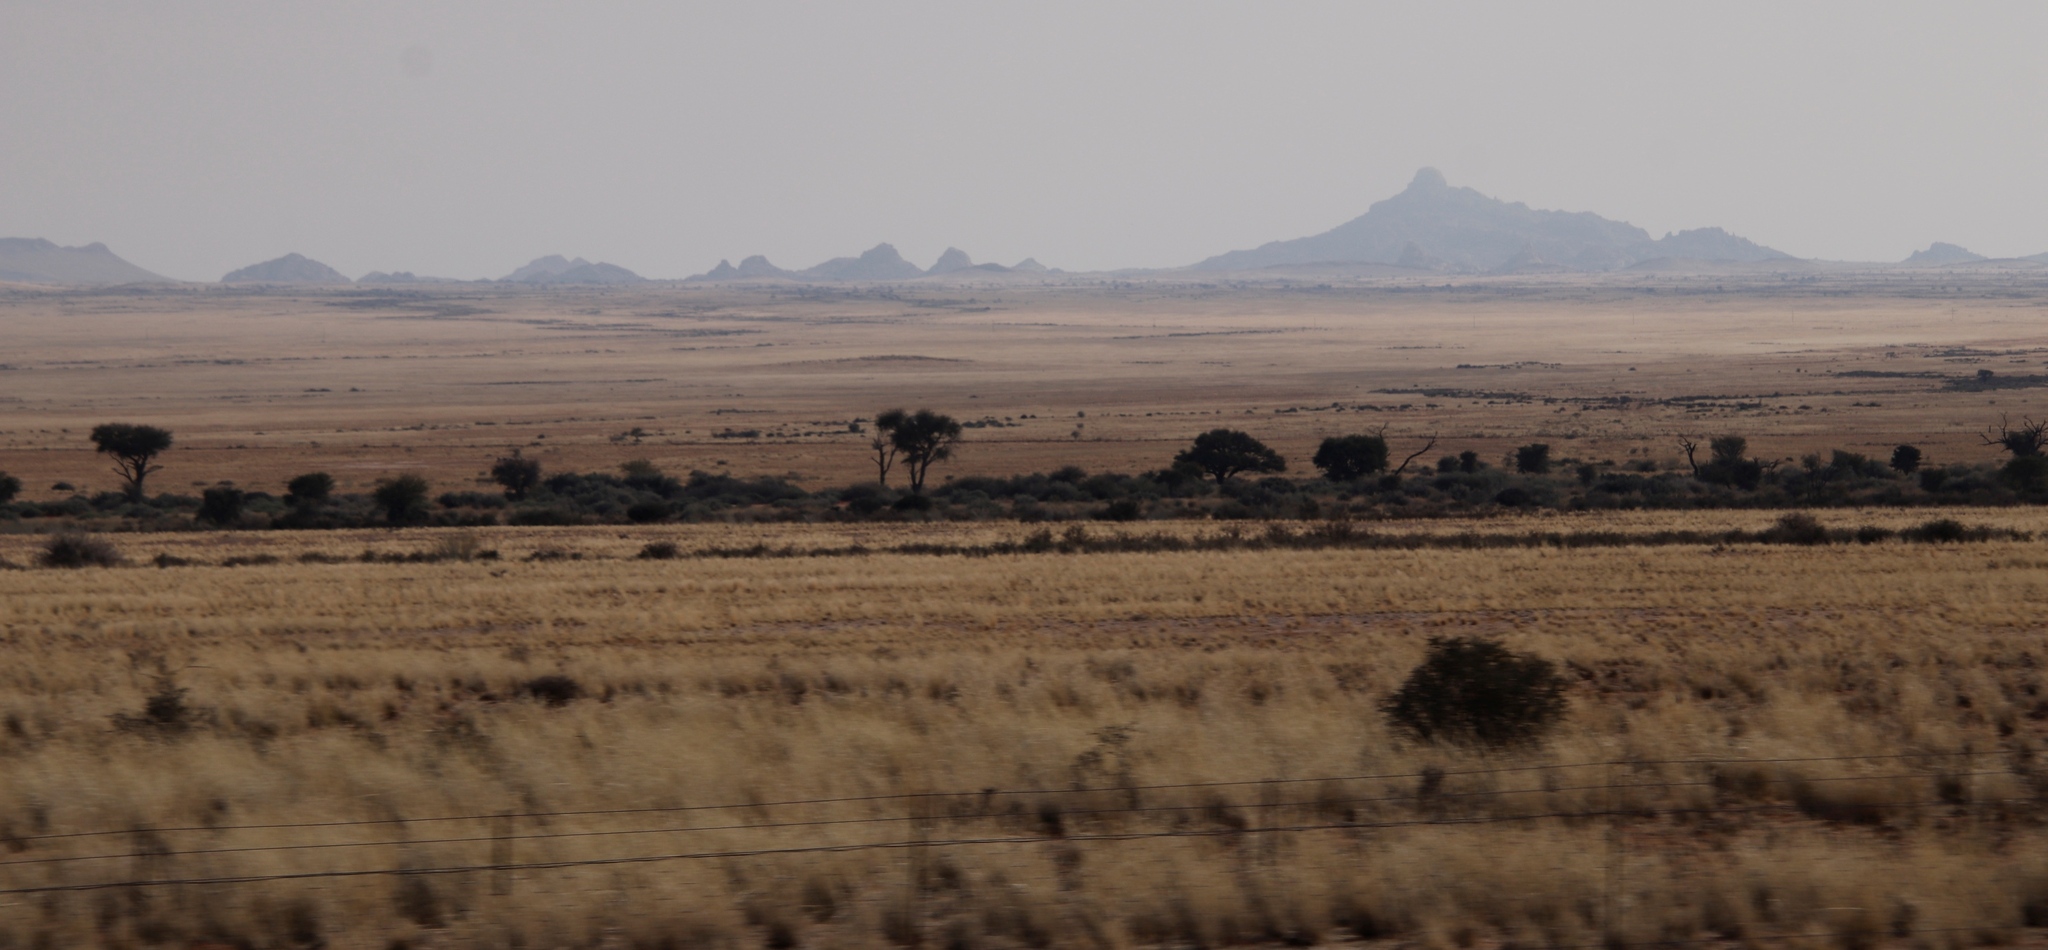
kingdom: Plantae
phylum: Tracheophyta
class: Magnoliopsida
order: Fabales
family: Fabaceae
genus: Vachellia
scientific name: Vachellia erioloba
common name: Camel thorn
